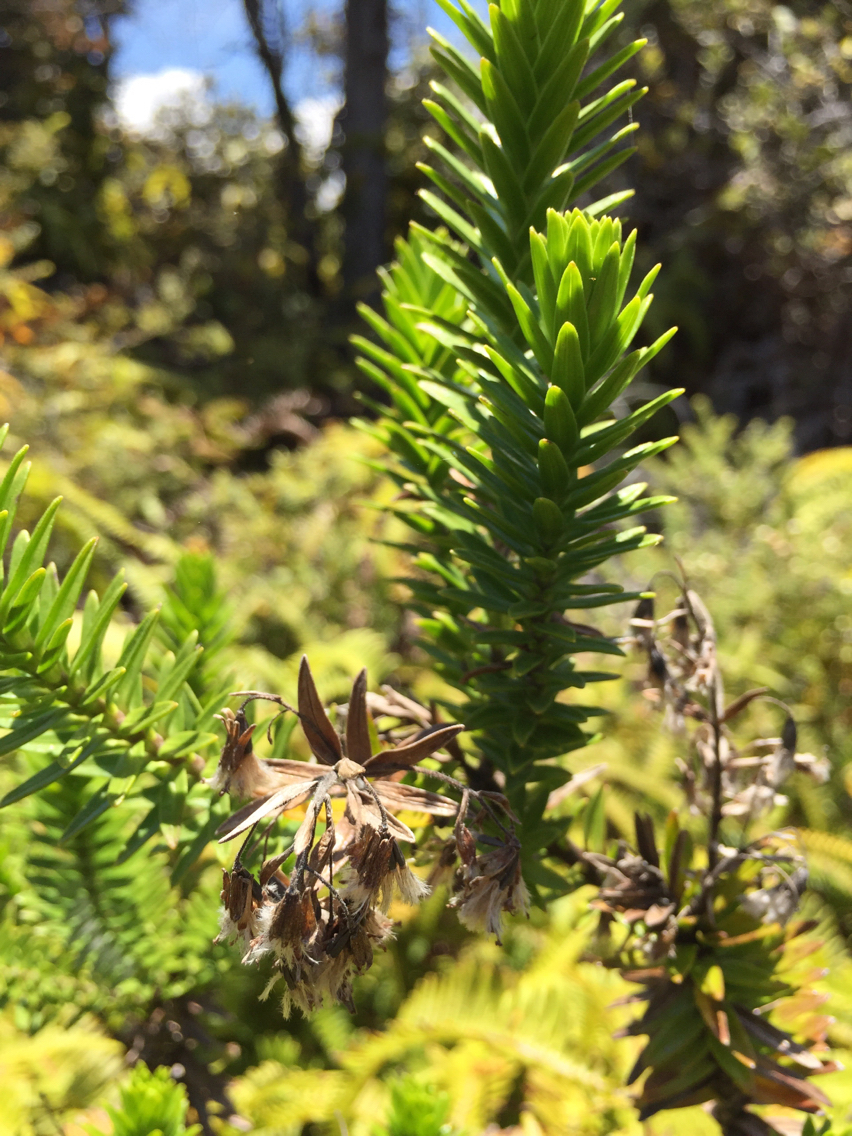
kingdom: Plantae
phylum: Tracheophyta
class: Magnoliopsida
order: Ericales
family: Ericaceae
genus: Leptecophylla
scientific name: Leptecophylla tameiameiae
